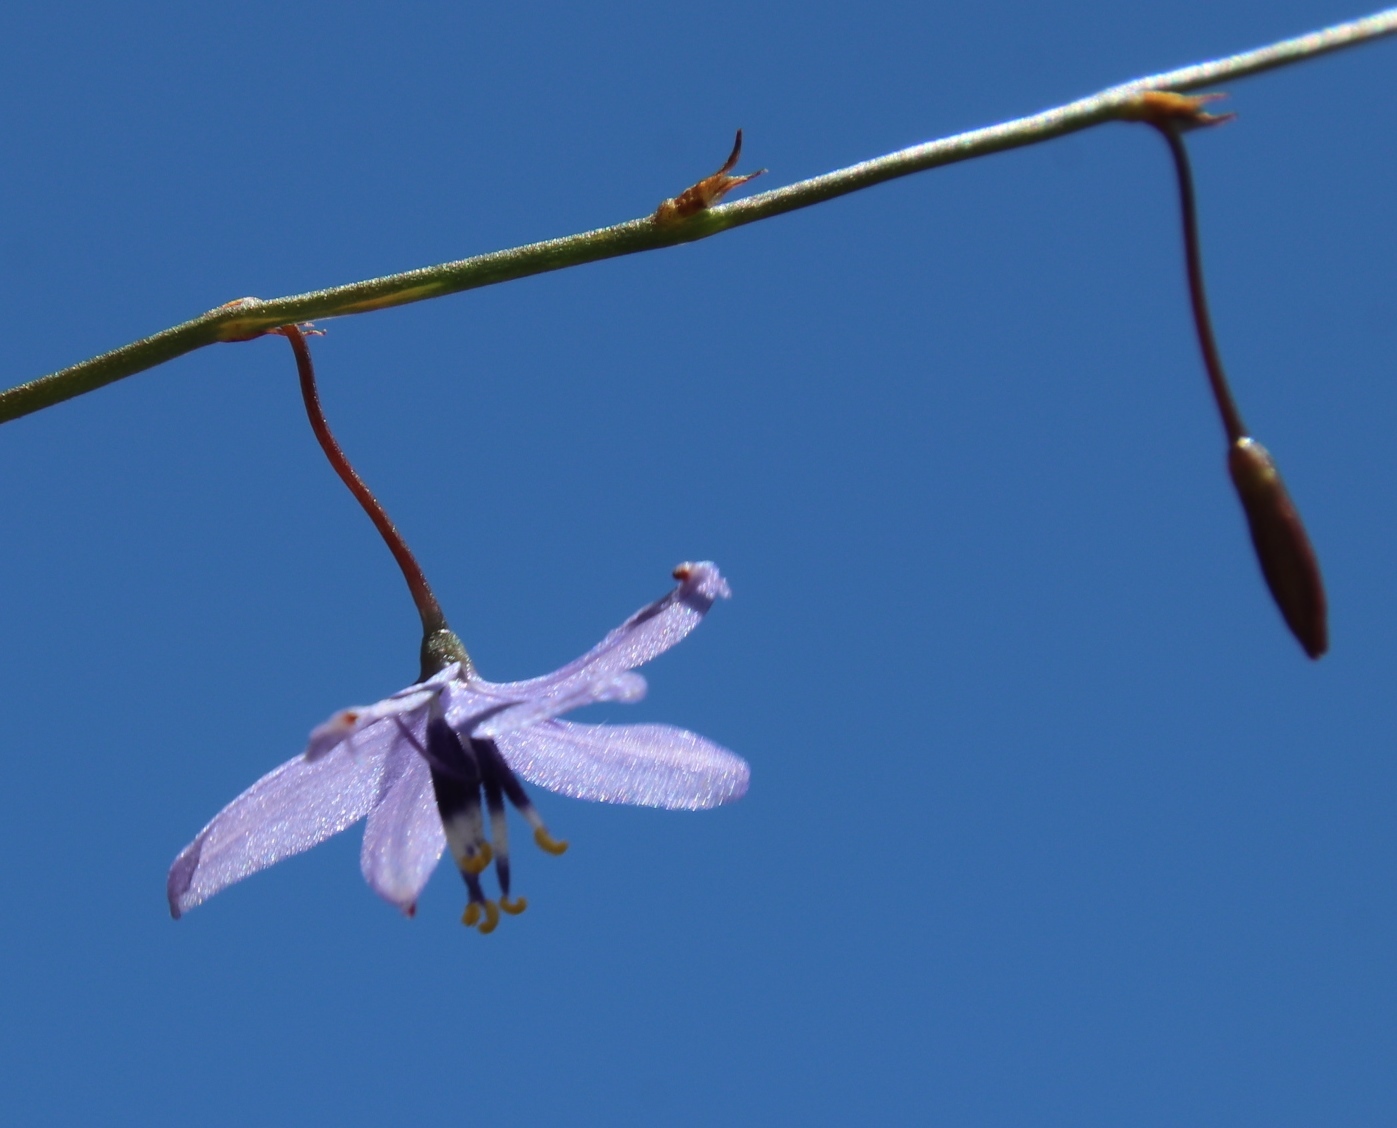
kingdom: Plantae
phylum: Tracheophyta
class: Liliopsida
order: Asparagales
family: Asphodelaceae
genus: Caesia
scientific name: Caesia contorta
